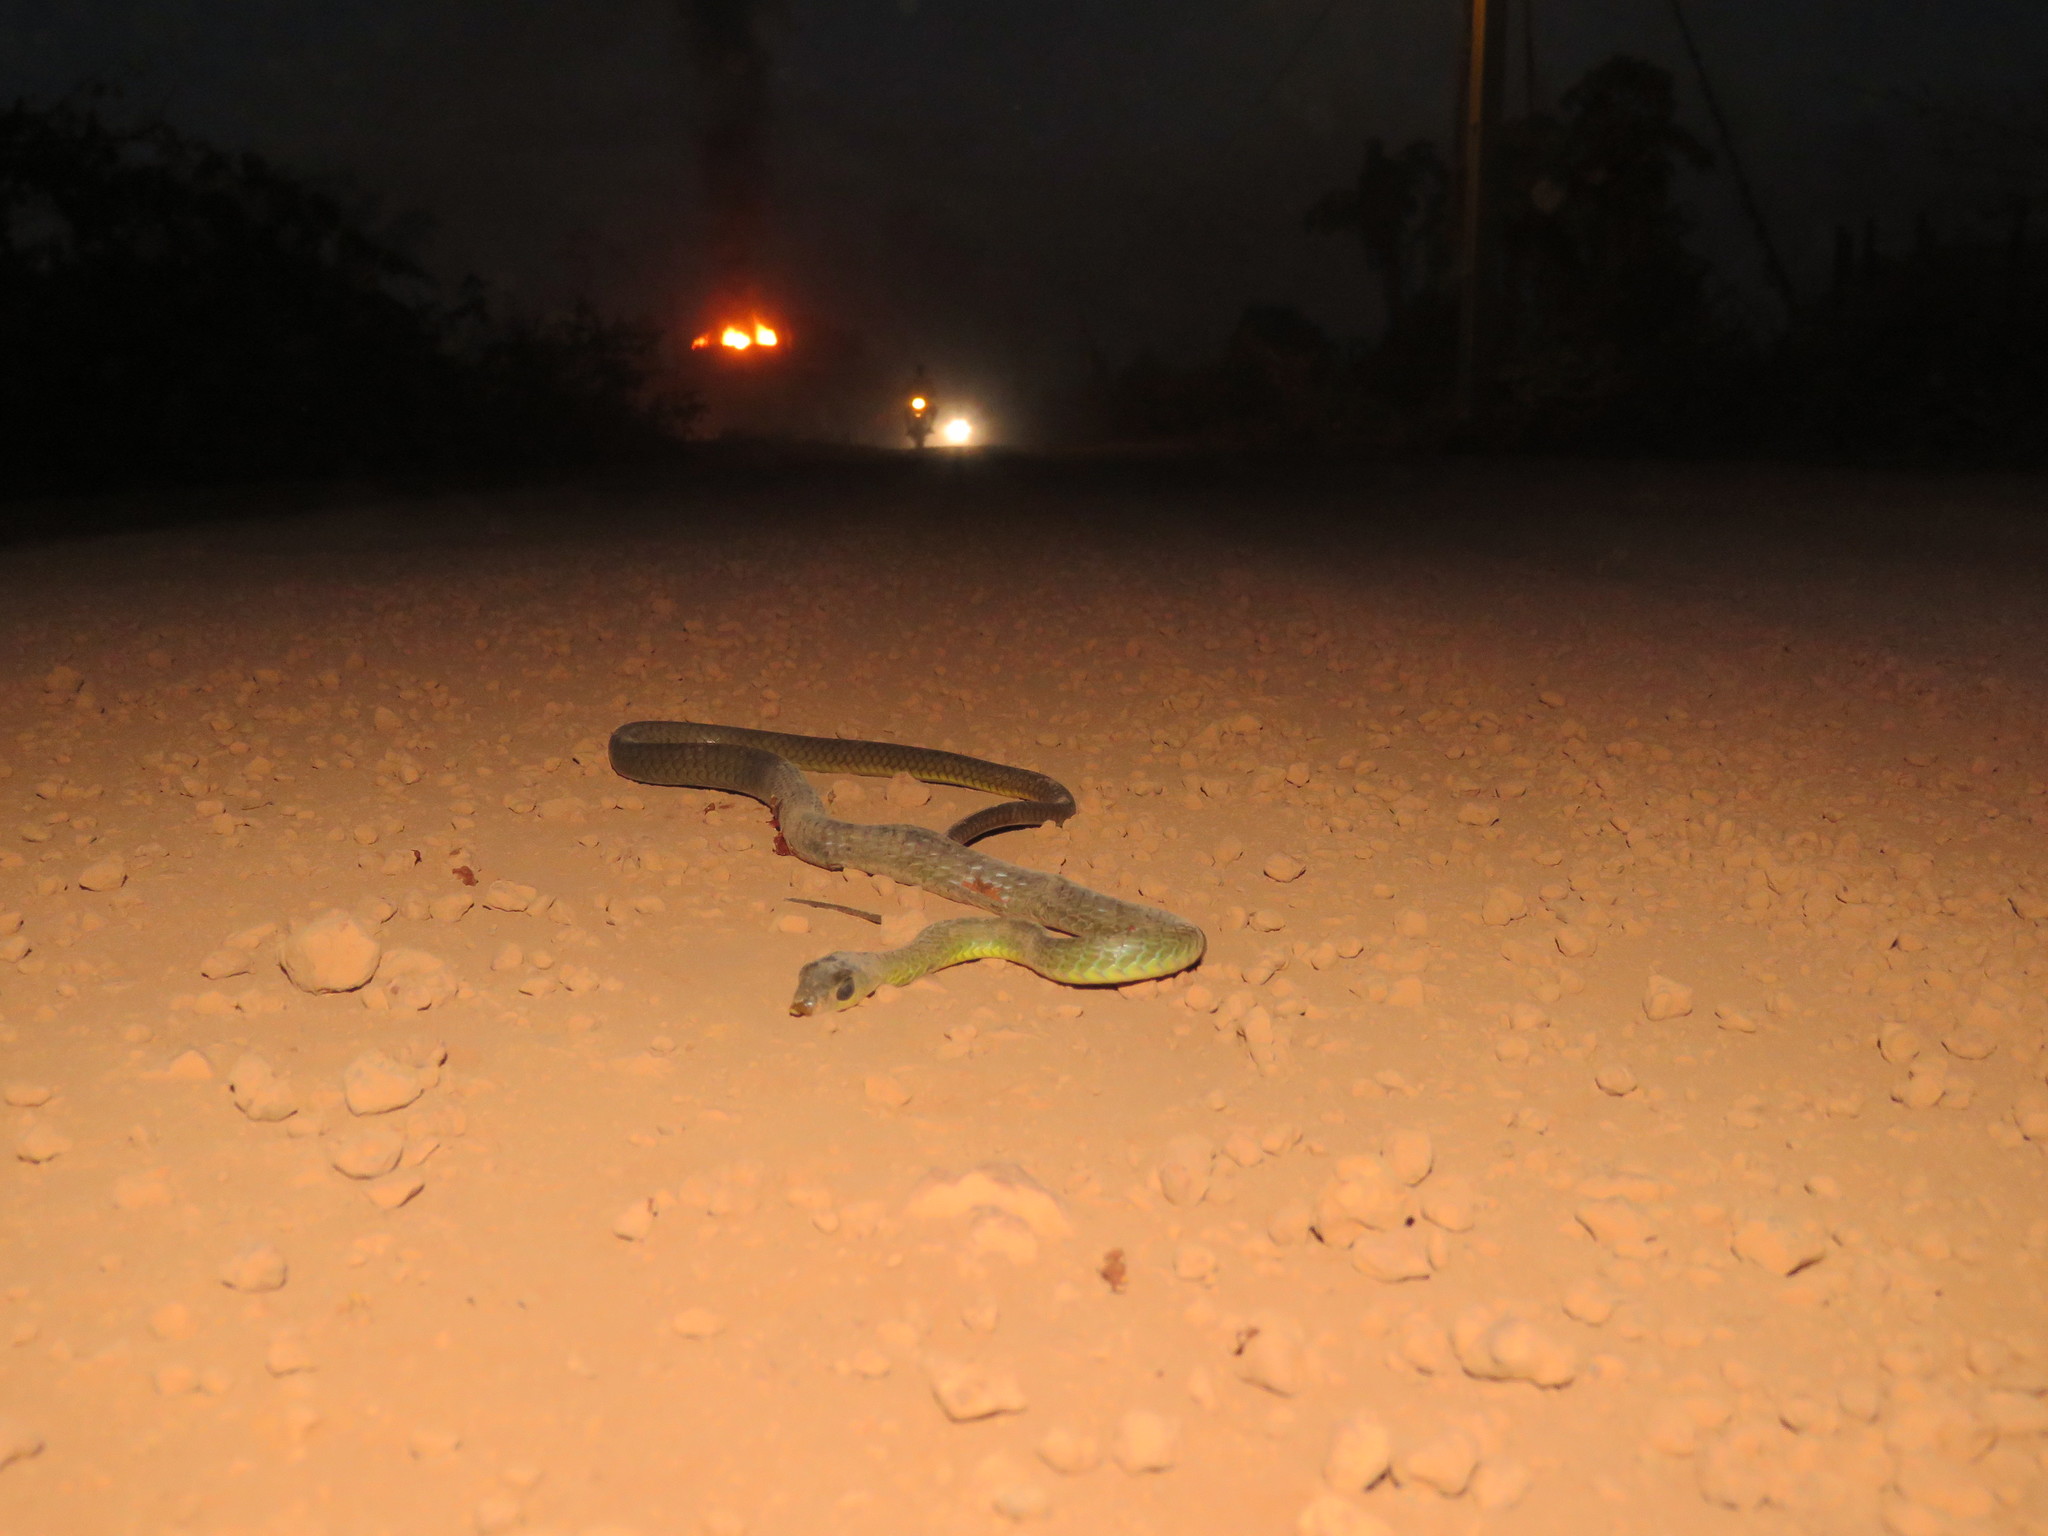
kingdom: Animalia
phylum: Chordata
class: Squamata
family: Colubridae
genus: Chironius
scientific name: Chironius exoletus
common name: Linnaeus' sipo
